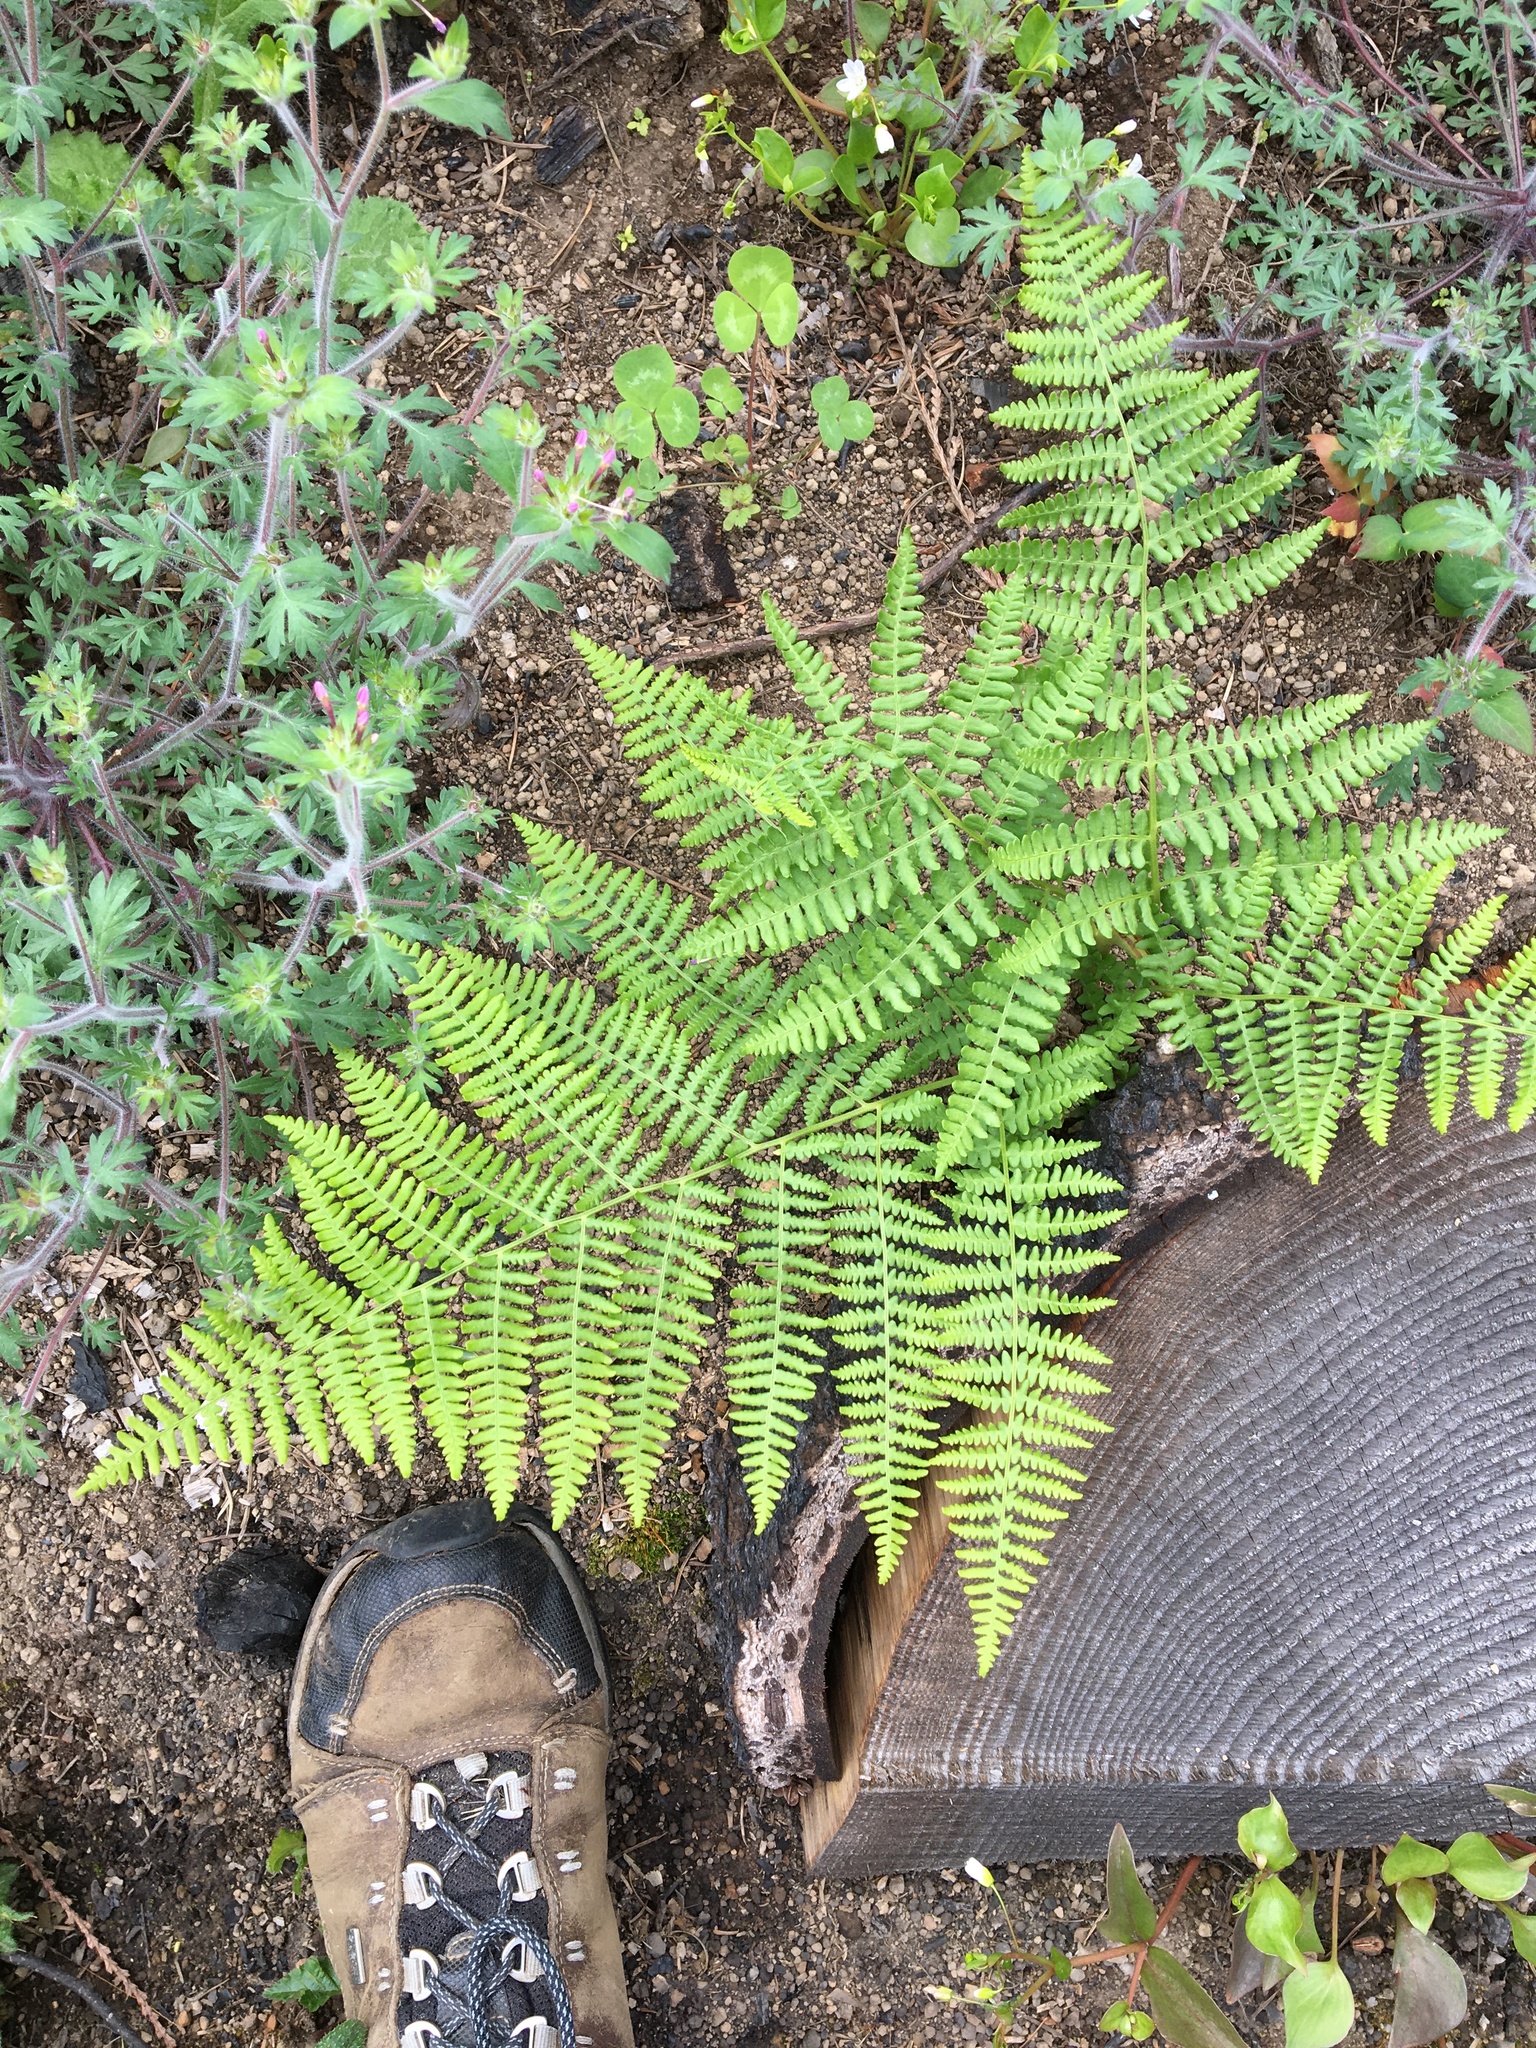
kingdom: Plantae
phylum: Tracheophyta
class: Polypodiopsida
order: Polypodiales
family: Dennstaedtiaceae
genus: Pteridium
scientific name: Pteridium aquilinum
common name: Bracken
